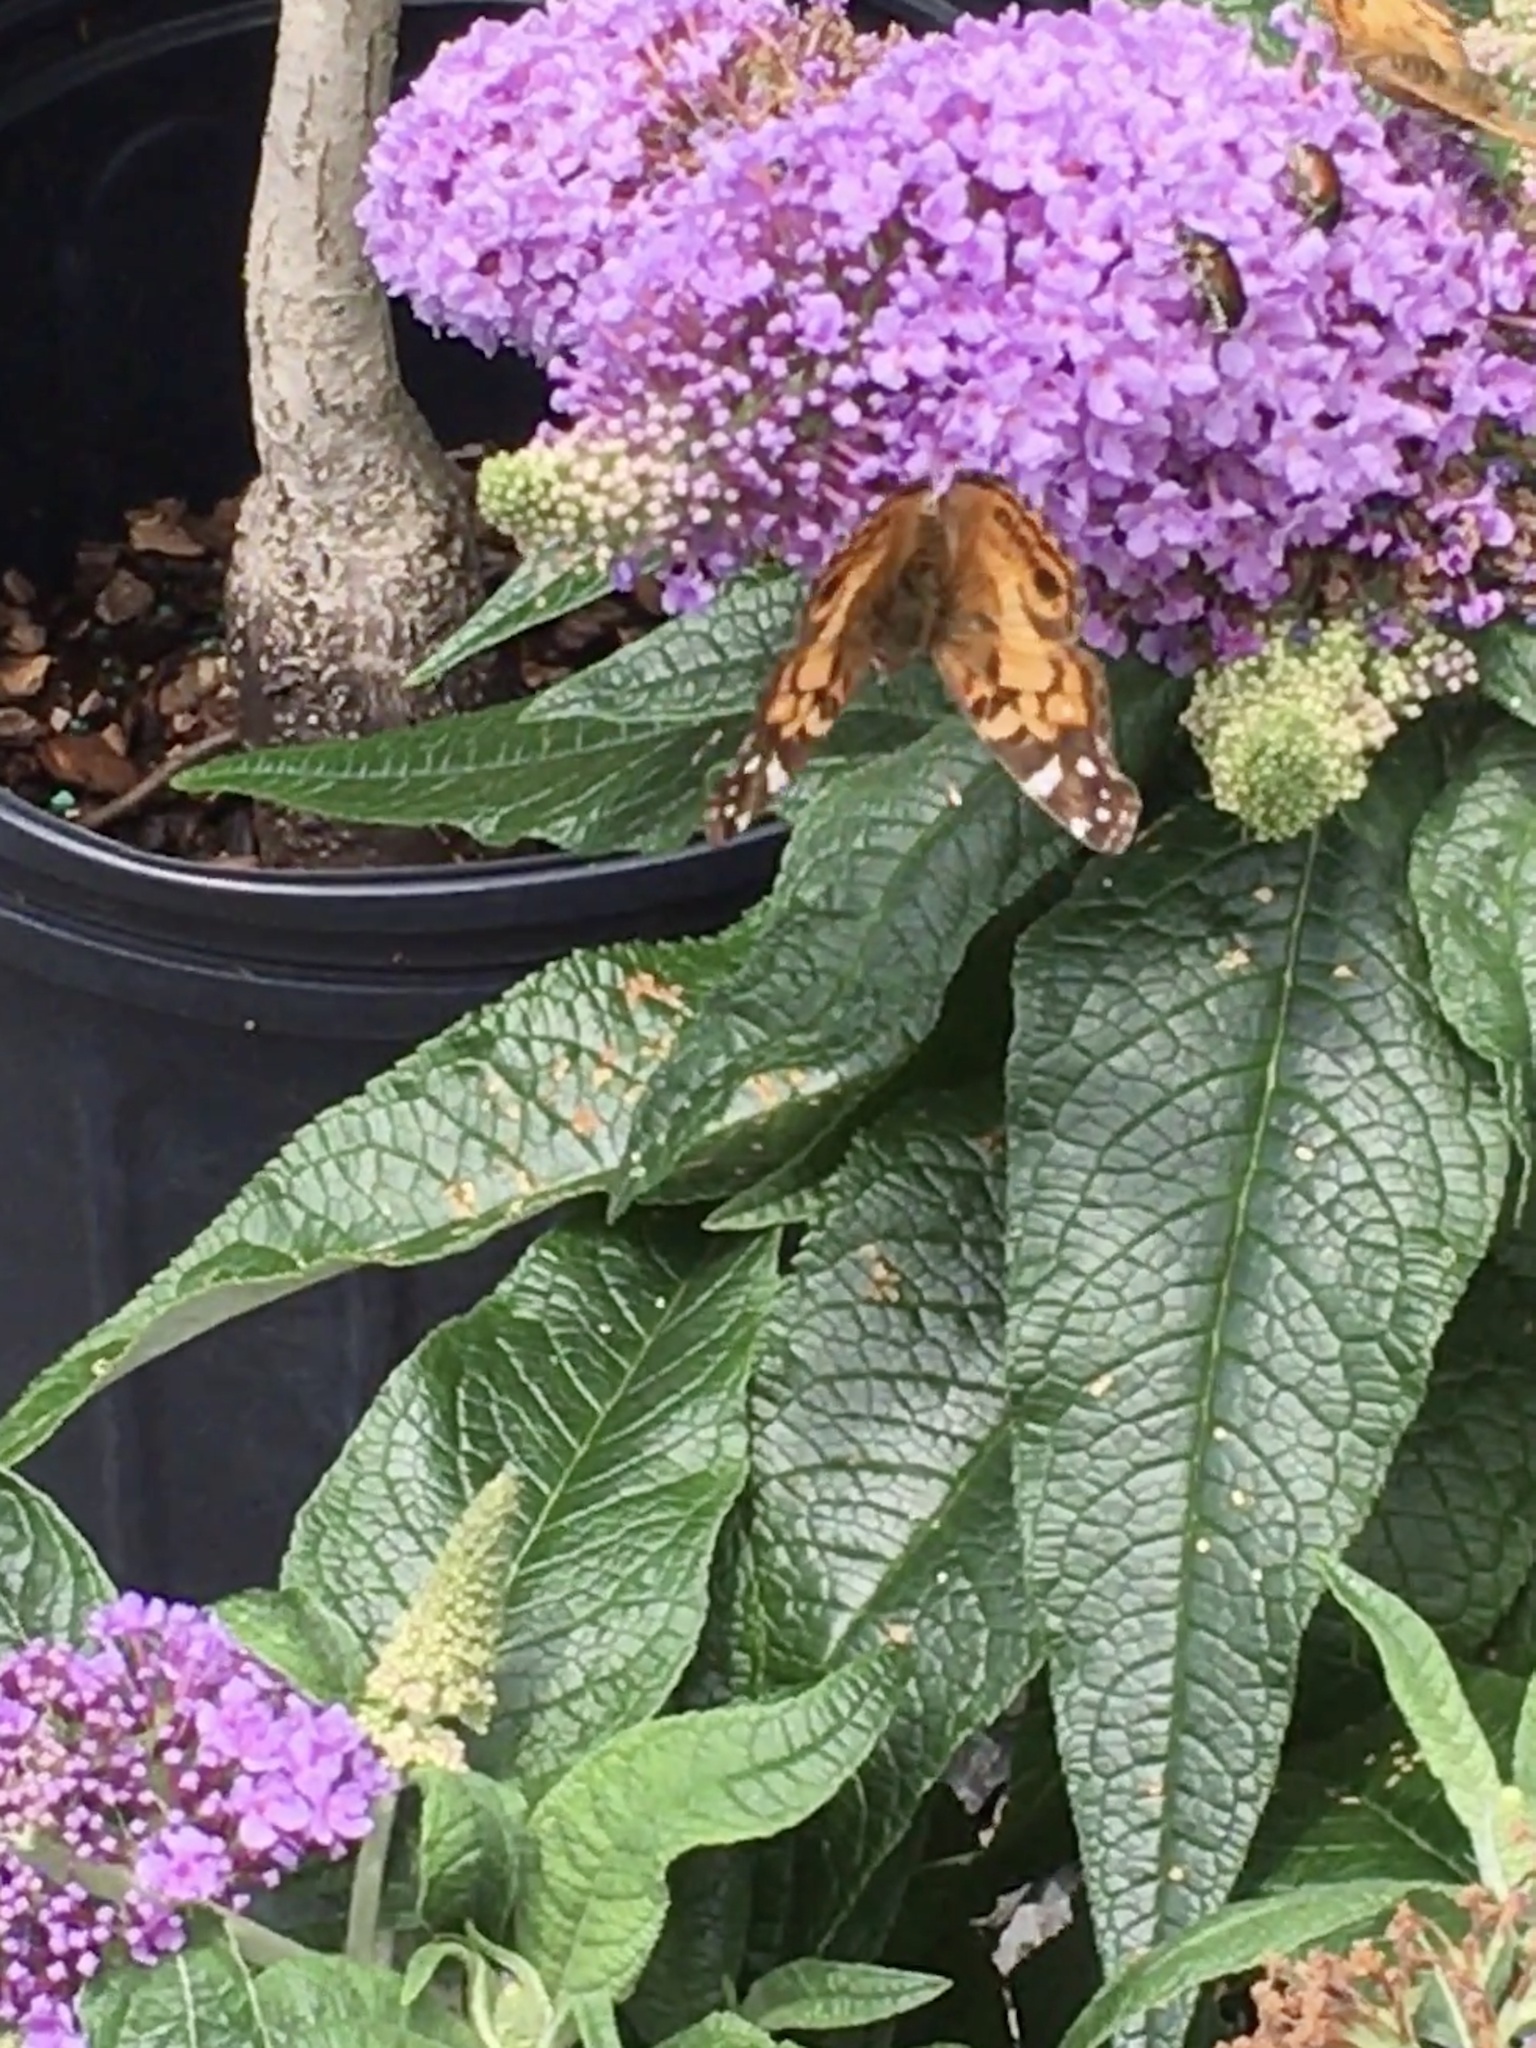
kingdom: Animalia
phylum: Arthropoda
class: Insecta
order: Lepidoptera
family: Nymphalidae
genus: Vanessa
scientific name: Vanessa virginiensis
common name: American lady
